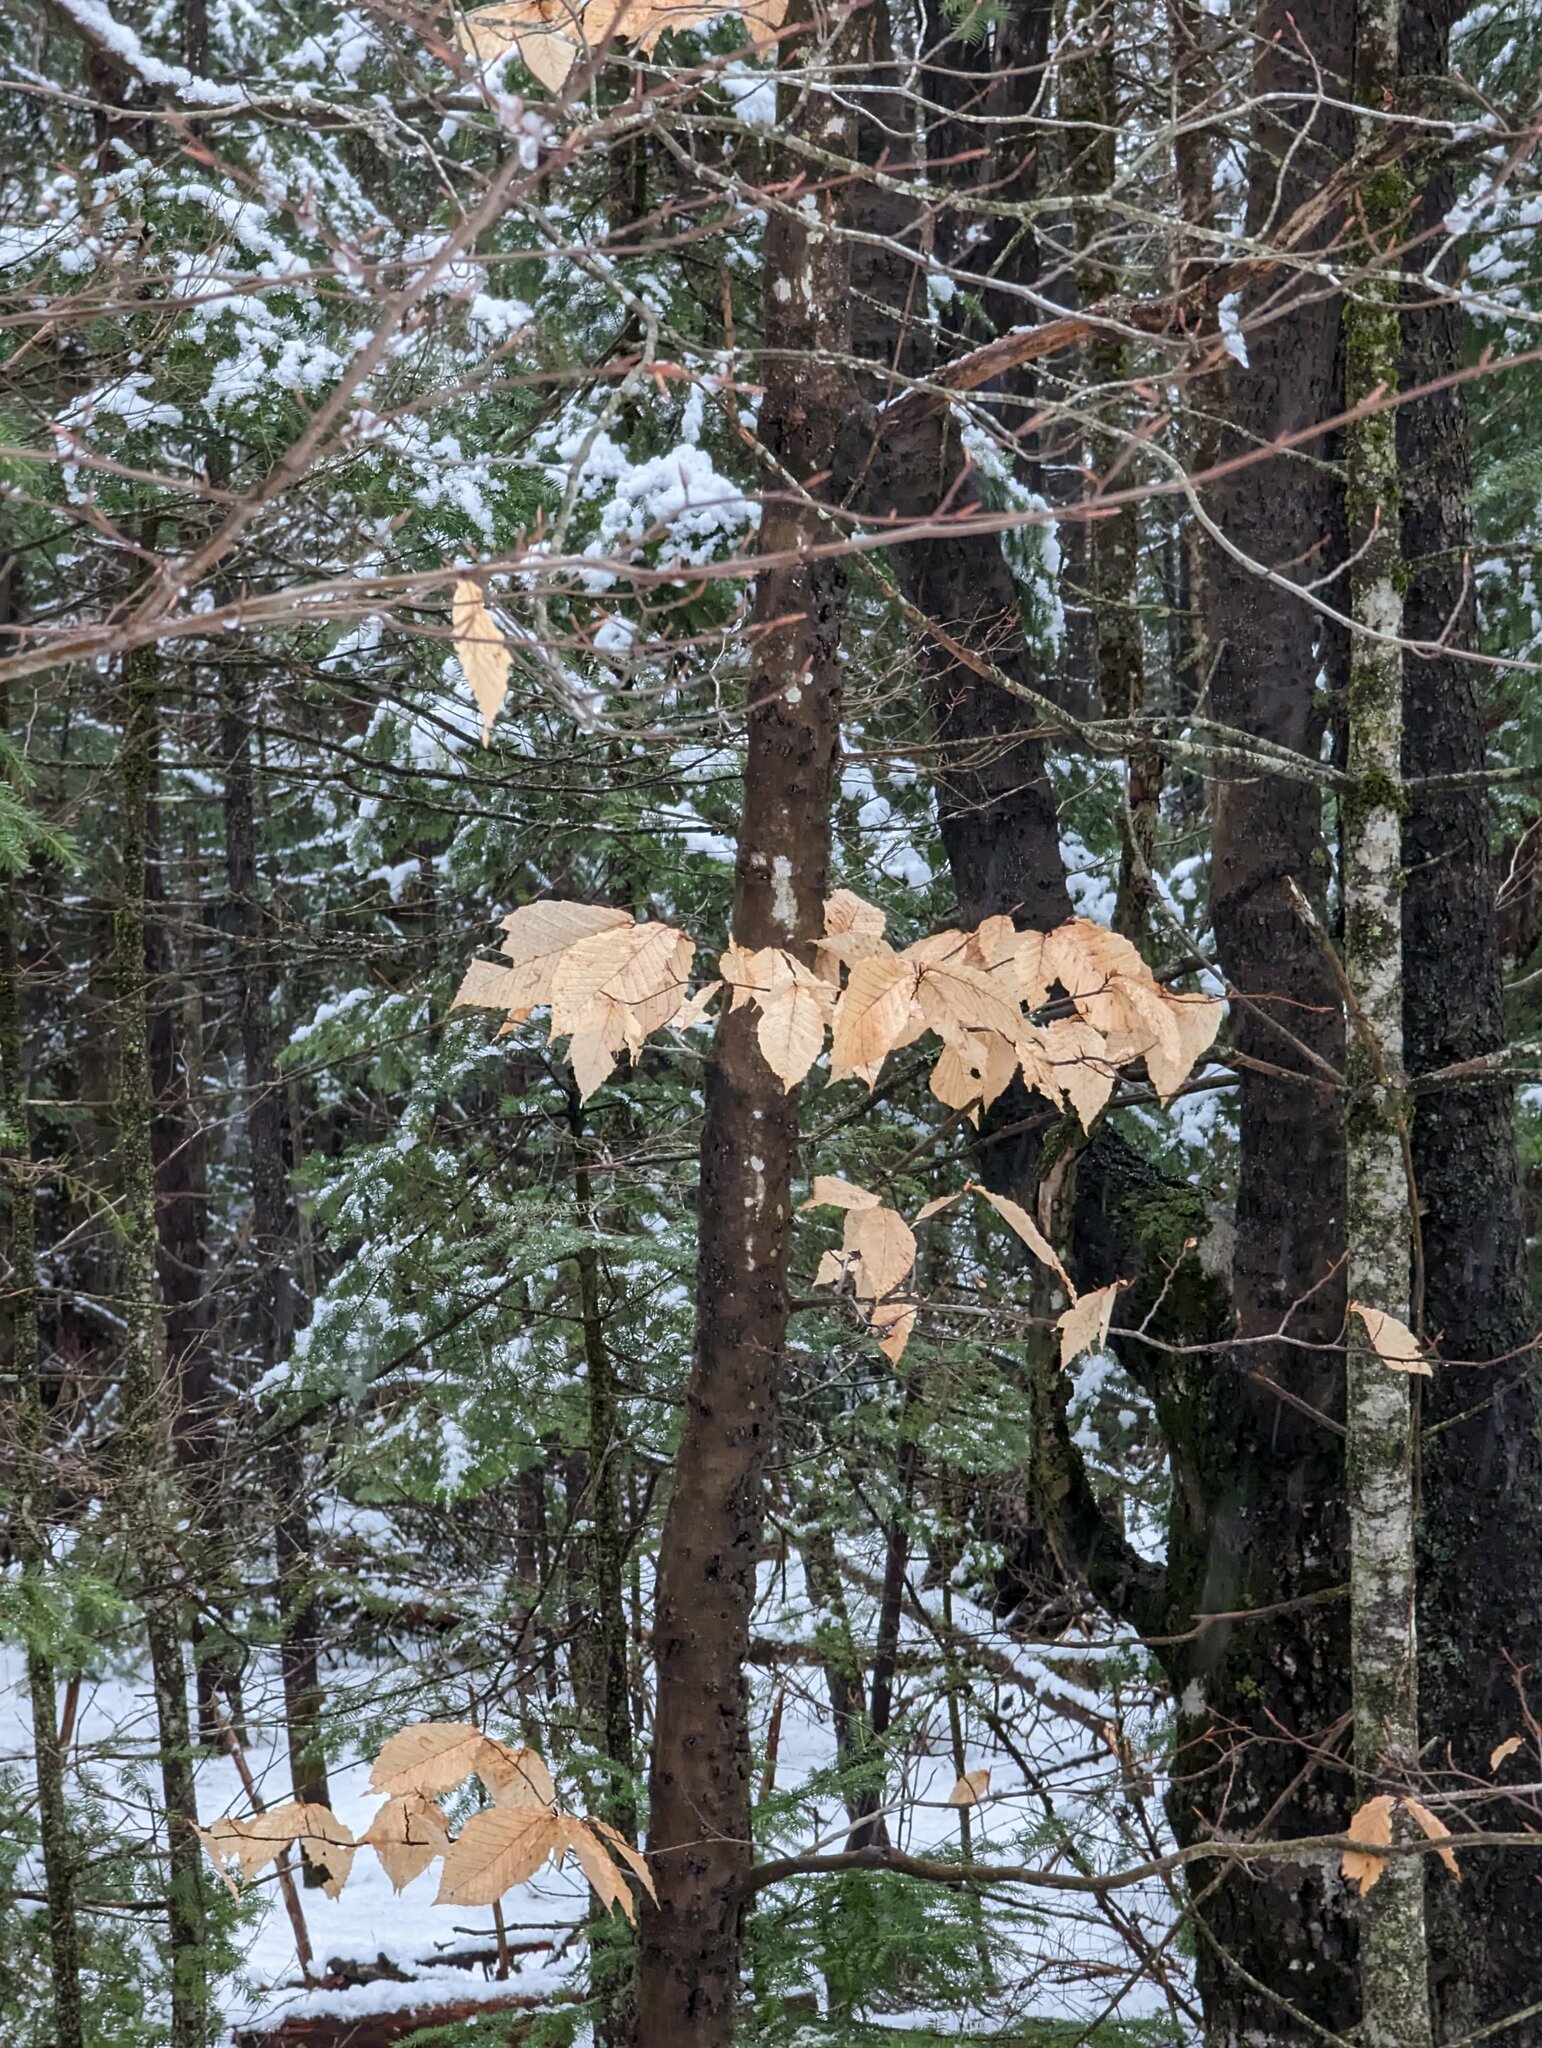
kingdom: Plantae
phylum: Tracheophyta
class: Magnoliopsida
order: Fagales
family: Fagaceae
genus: Fagus
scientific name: Fagus grandifolia
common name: American beech
